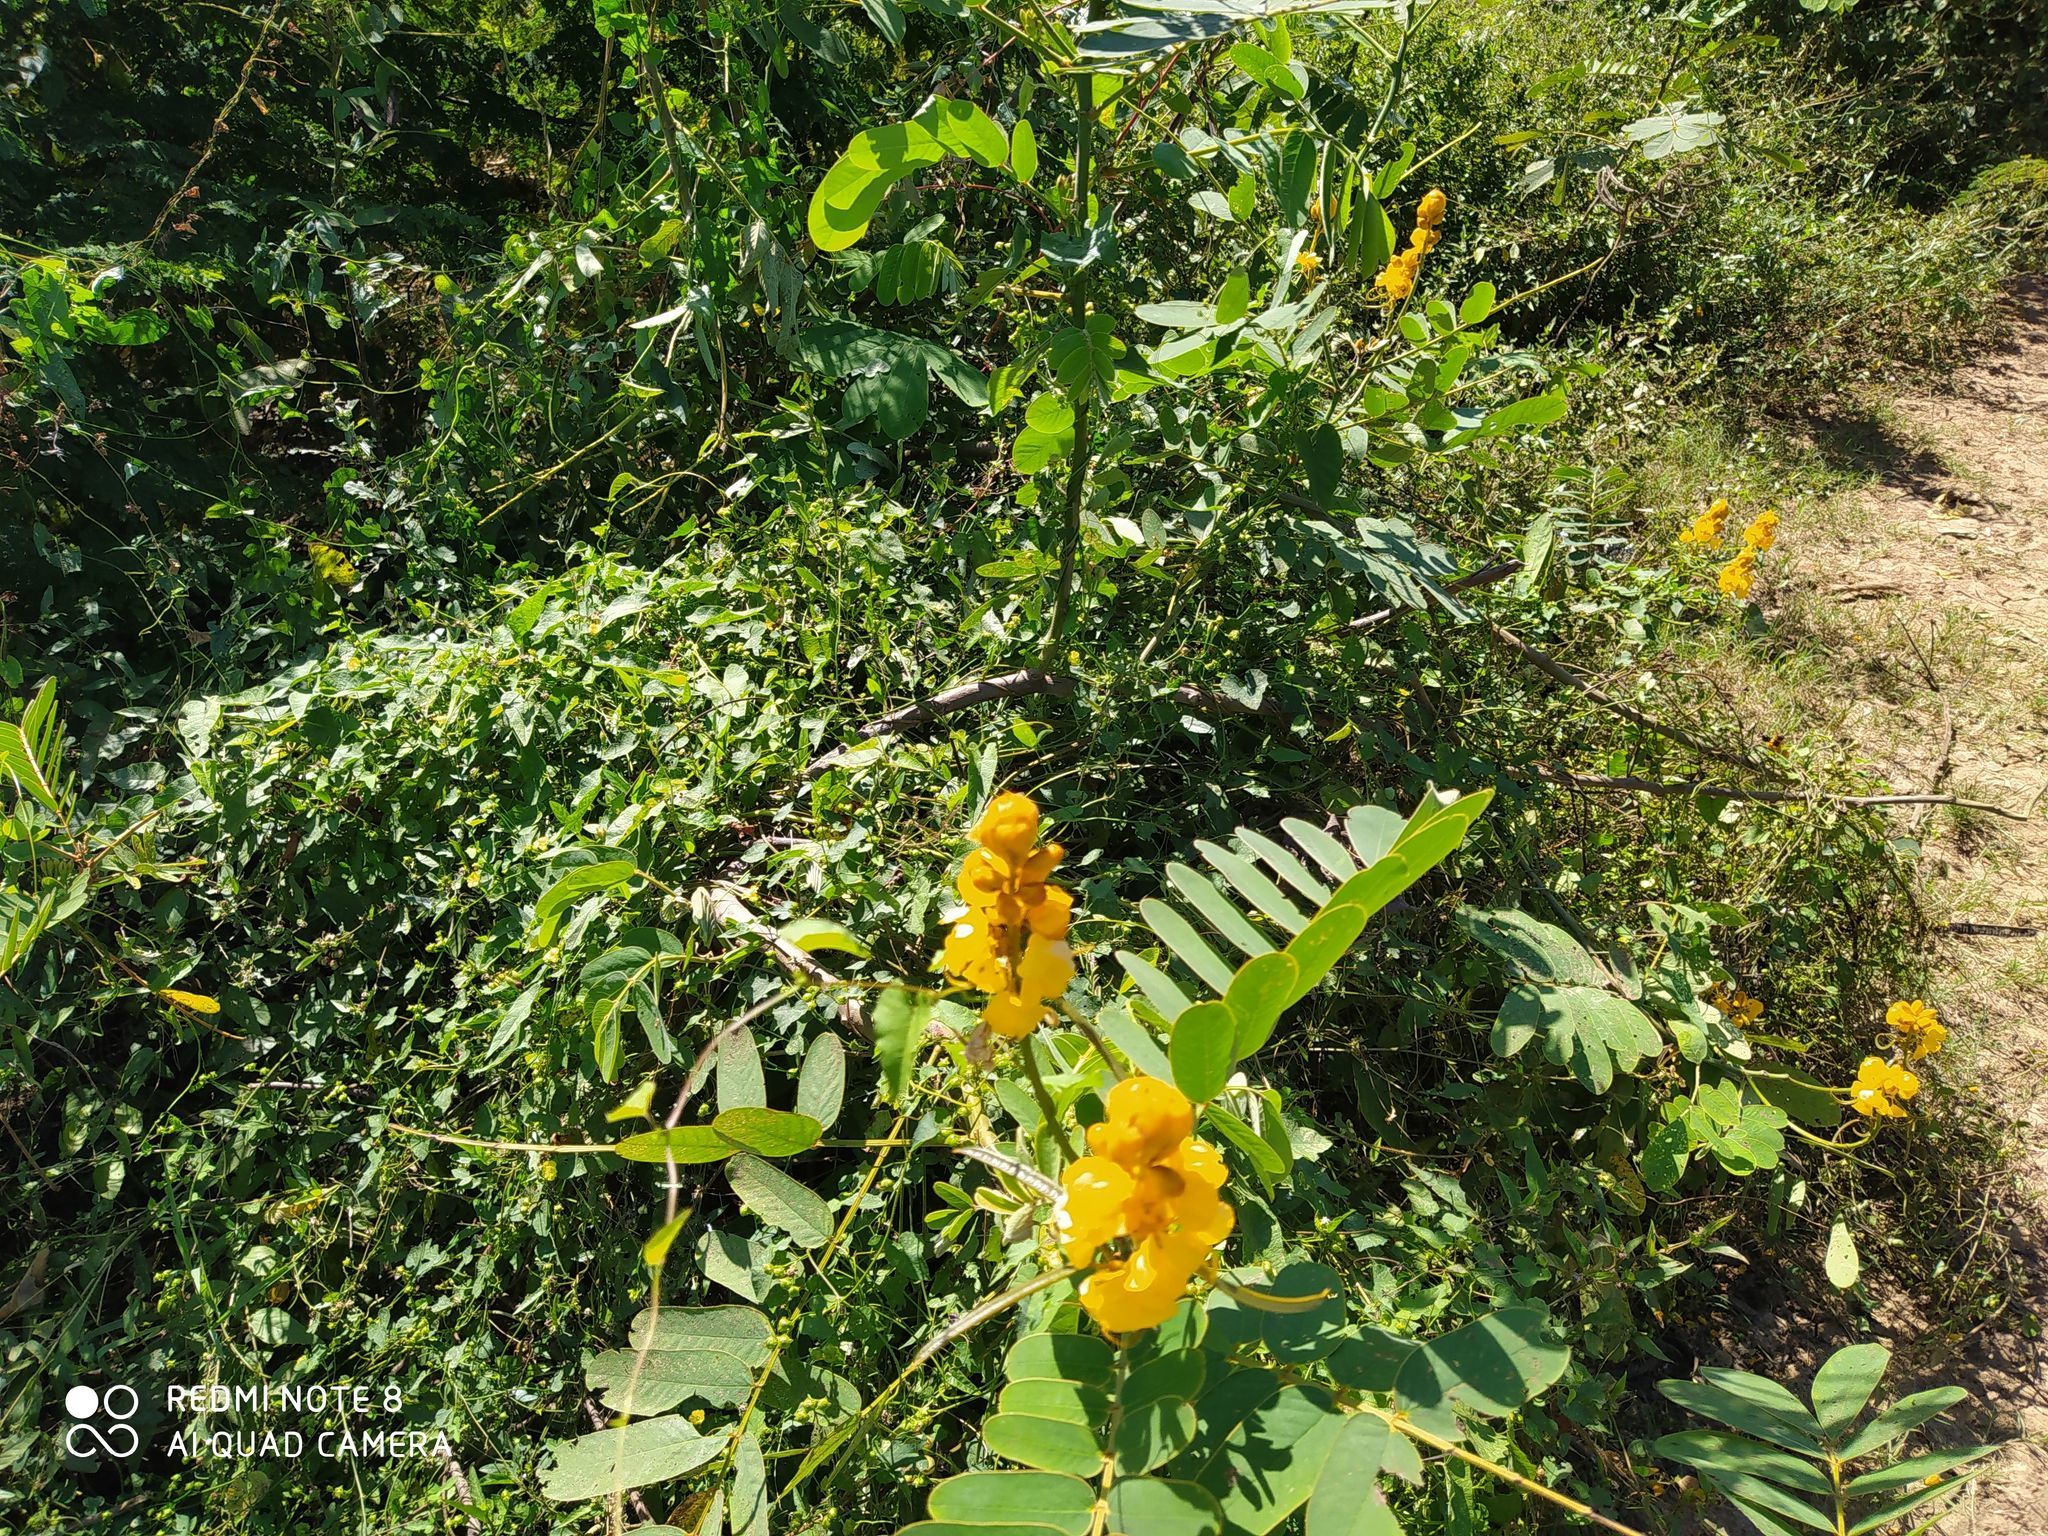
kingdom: Plantae
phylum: Tracheophyta
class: Magnoliopsida
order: Fabales
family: Fabaceae
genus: Senna
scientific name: Senna alata
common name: Emperor's candlesticks
